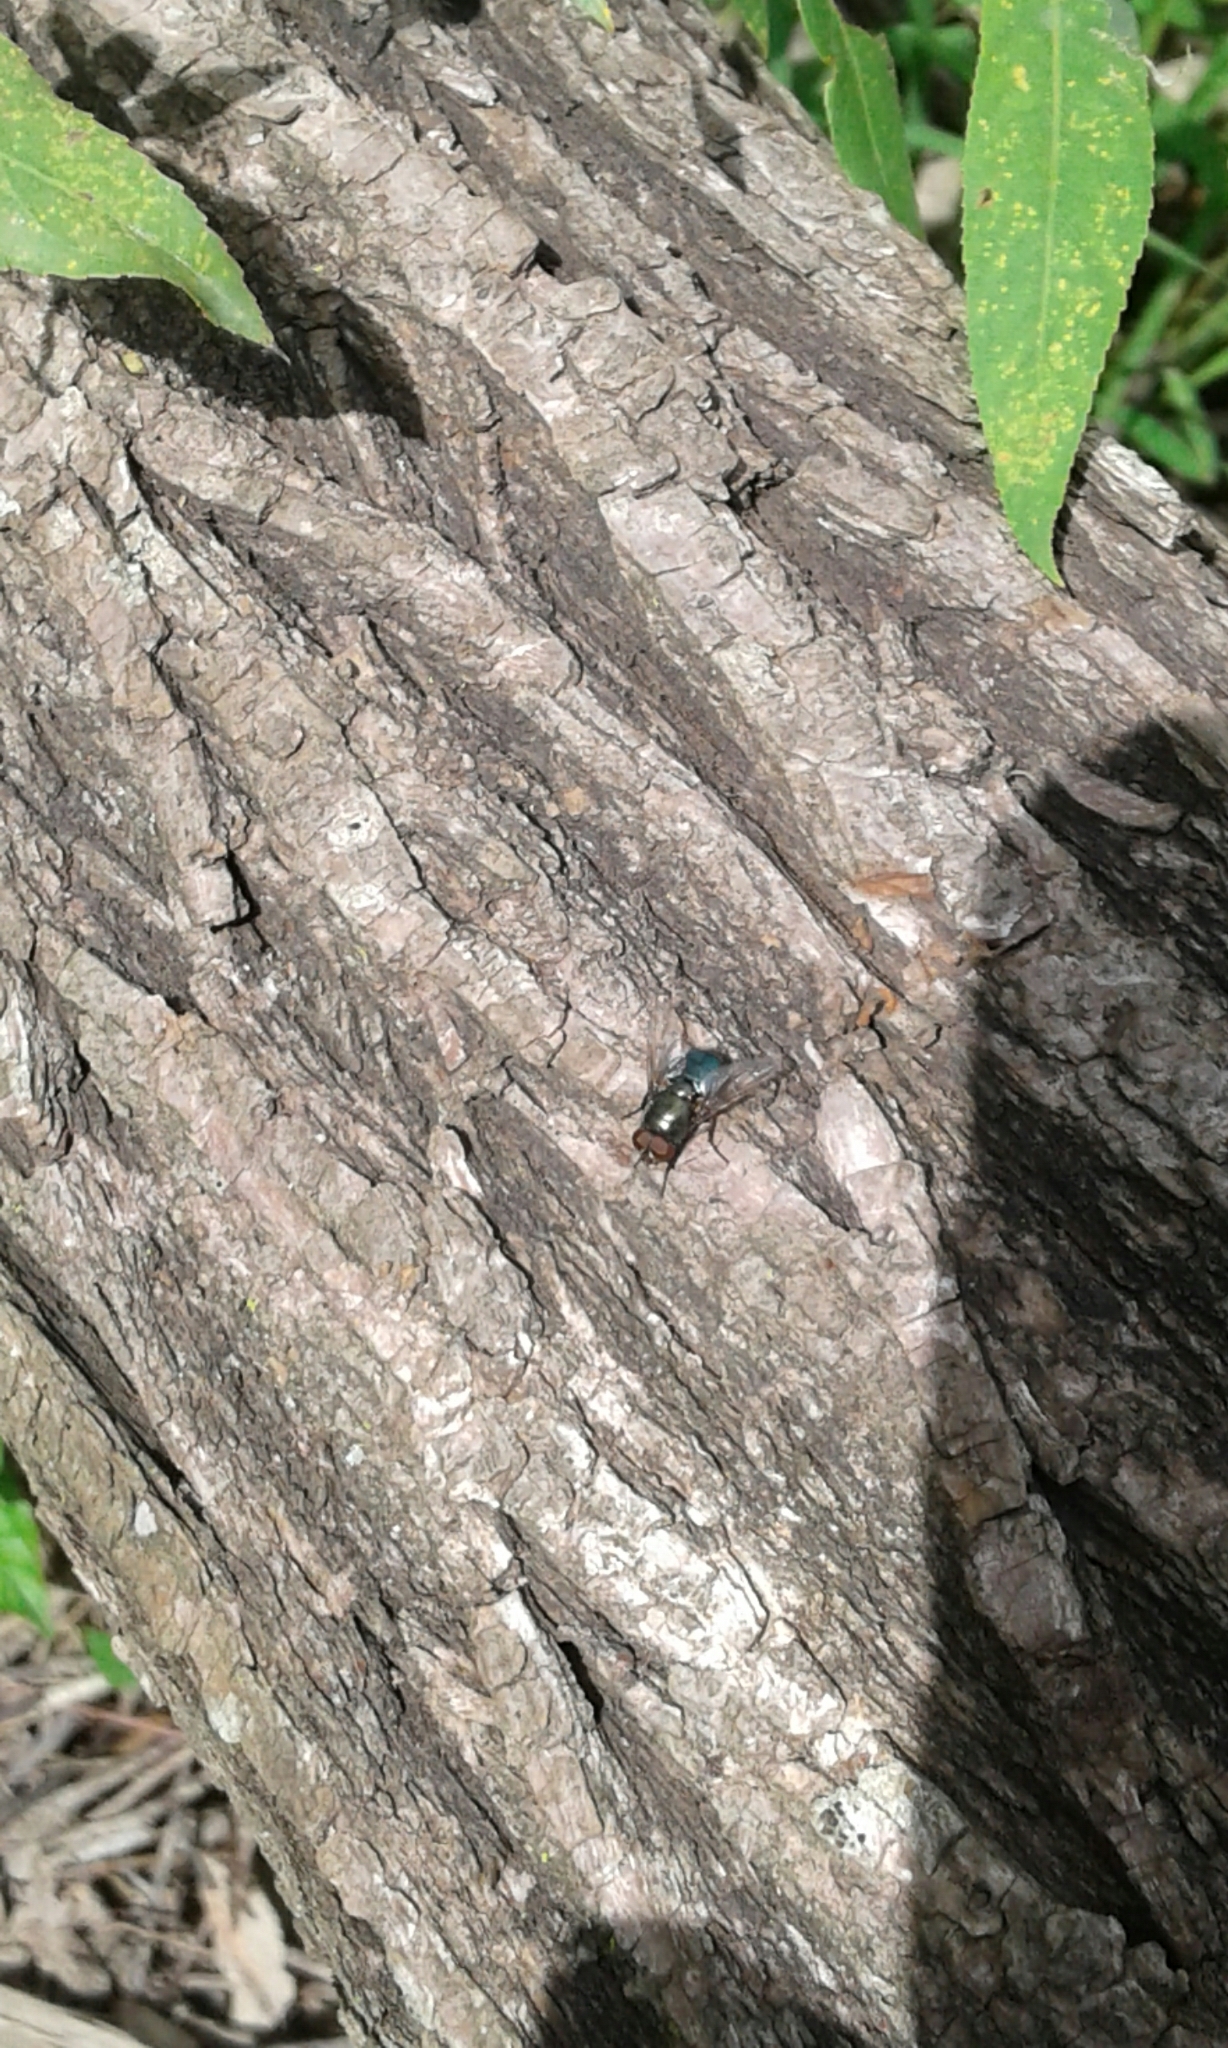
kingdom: Animalia
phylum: Arthropoda
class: Insecta
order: Diptera
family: Calliphoridae
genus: Phormia
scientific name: Phormia regina
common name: Black blow fly
